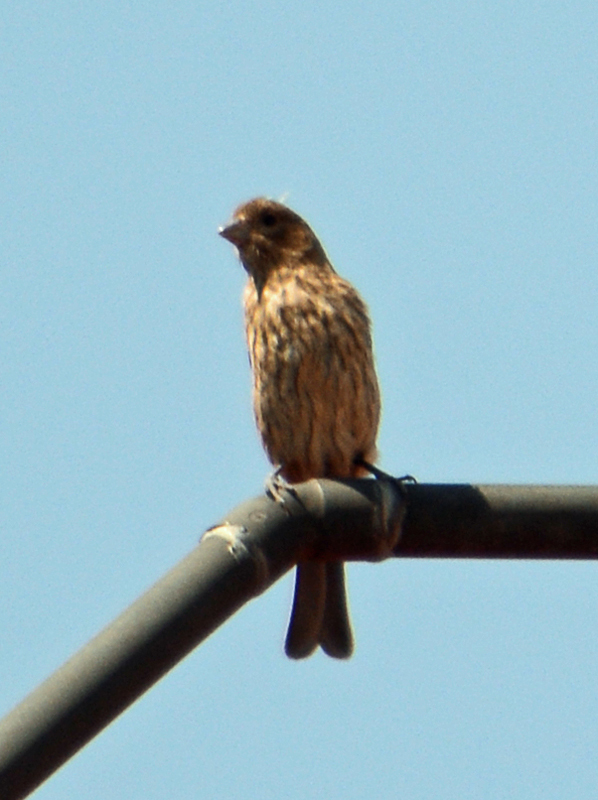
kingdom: Animalia
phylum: Chordata
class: Aves
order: Passeriformes
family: Fringillidae
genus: Haemorhous
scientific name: Haemorhous mexicanus
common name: House finch
